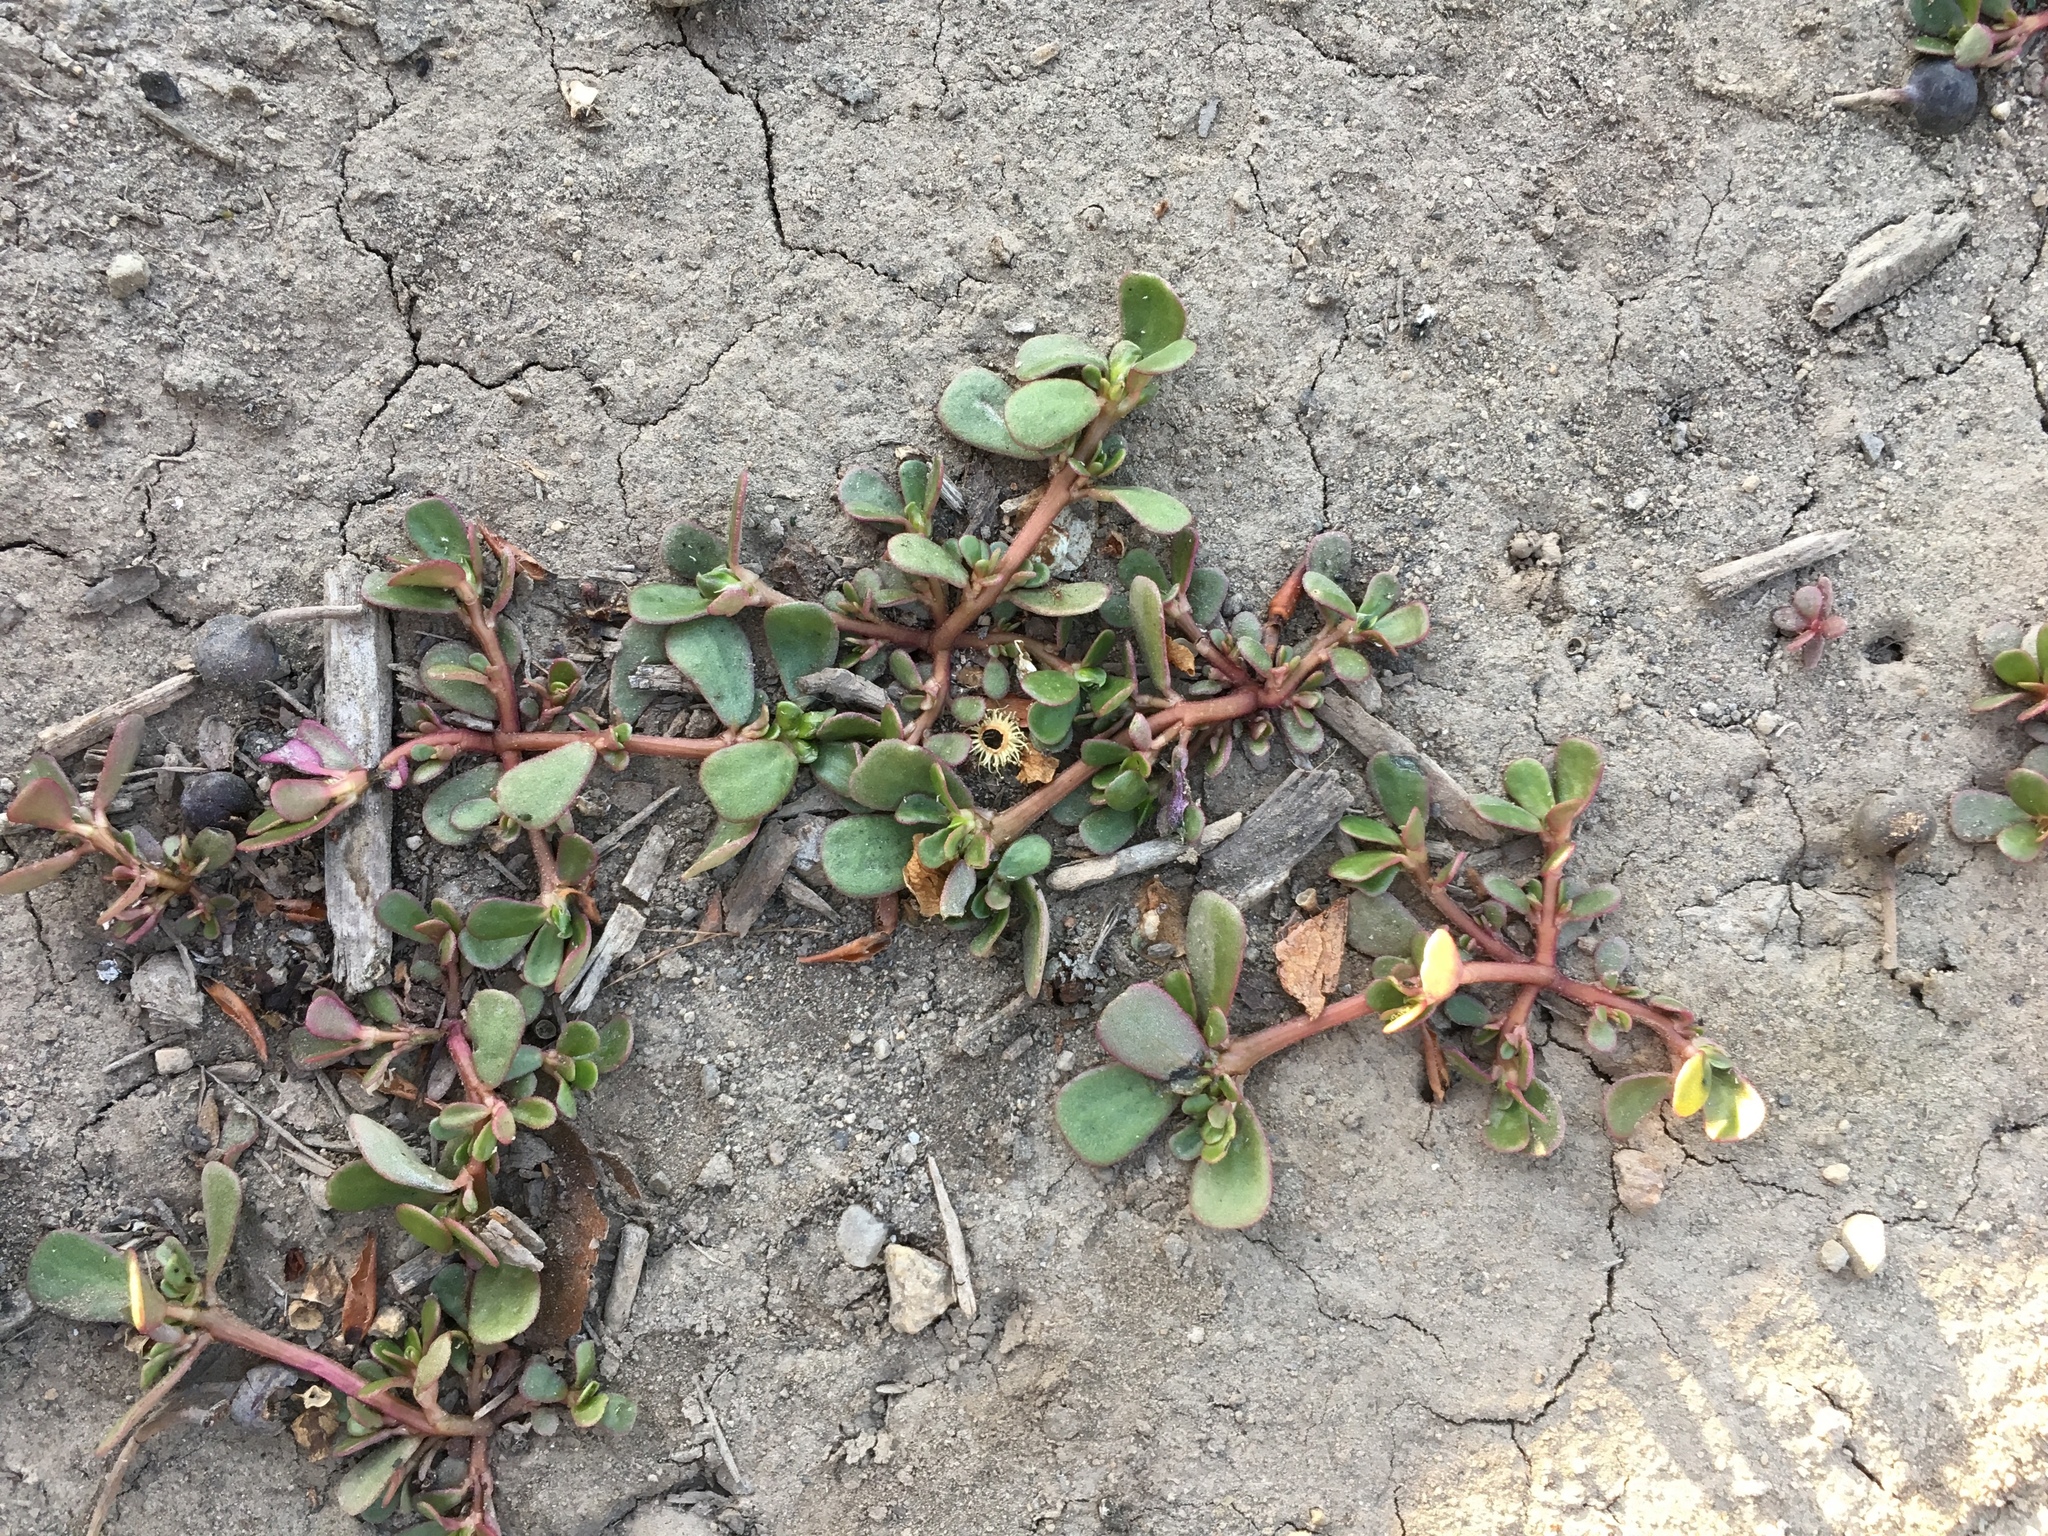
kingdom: Plantae
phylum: Tracheophyta
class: Magnoliopsida
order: Caryophyllales
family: Portulacaceae
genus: Portulaca
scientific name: Portulaca oleracea
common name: Common purslane
